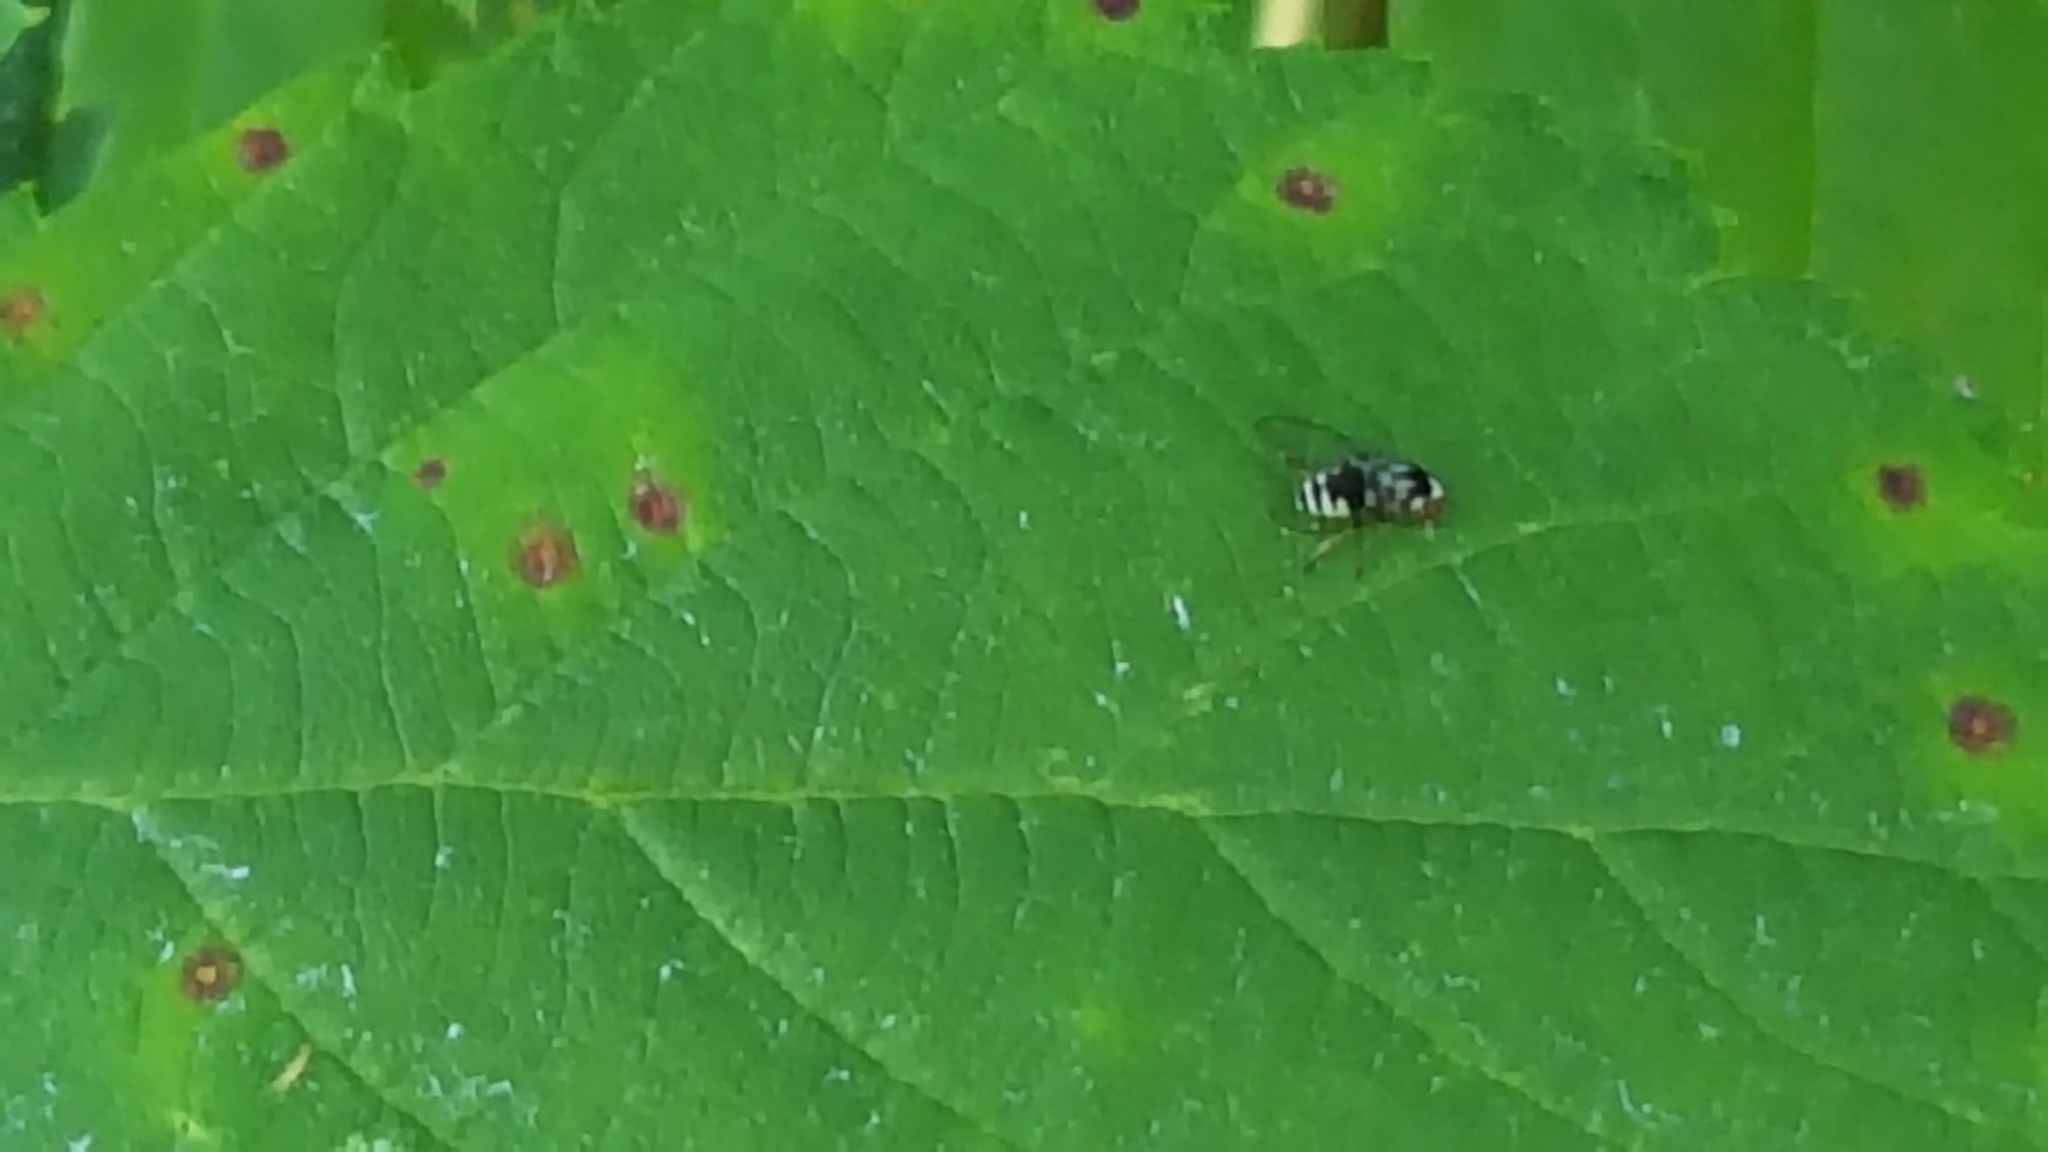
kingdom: Animalia
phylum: Arthropoda
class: Insecta
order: Diptera
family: Platypezidae
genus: Polyporivora
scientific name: Polyporivora polypori
